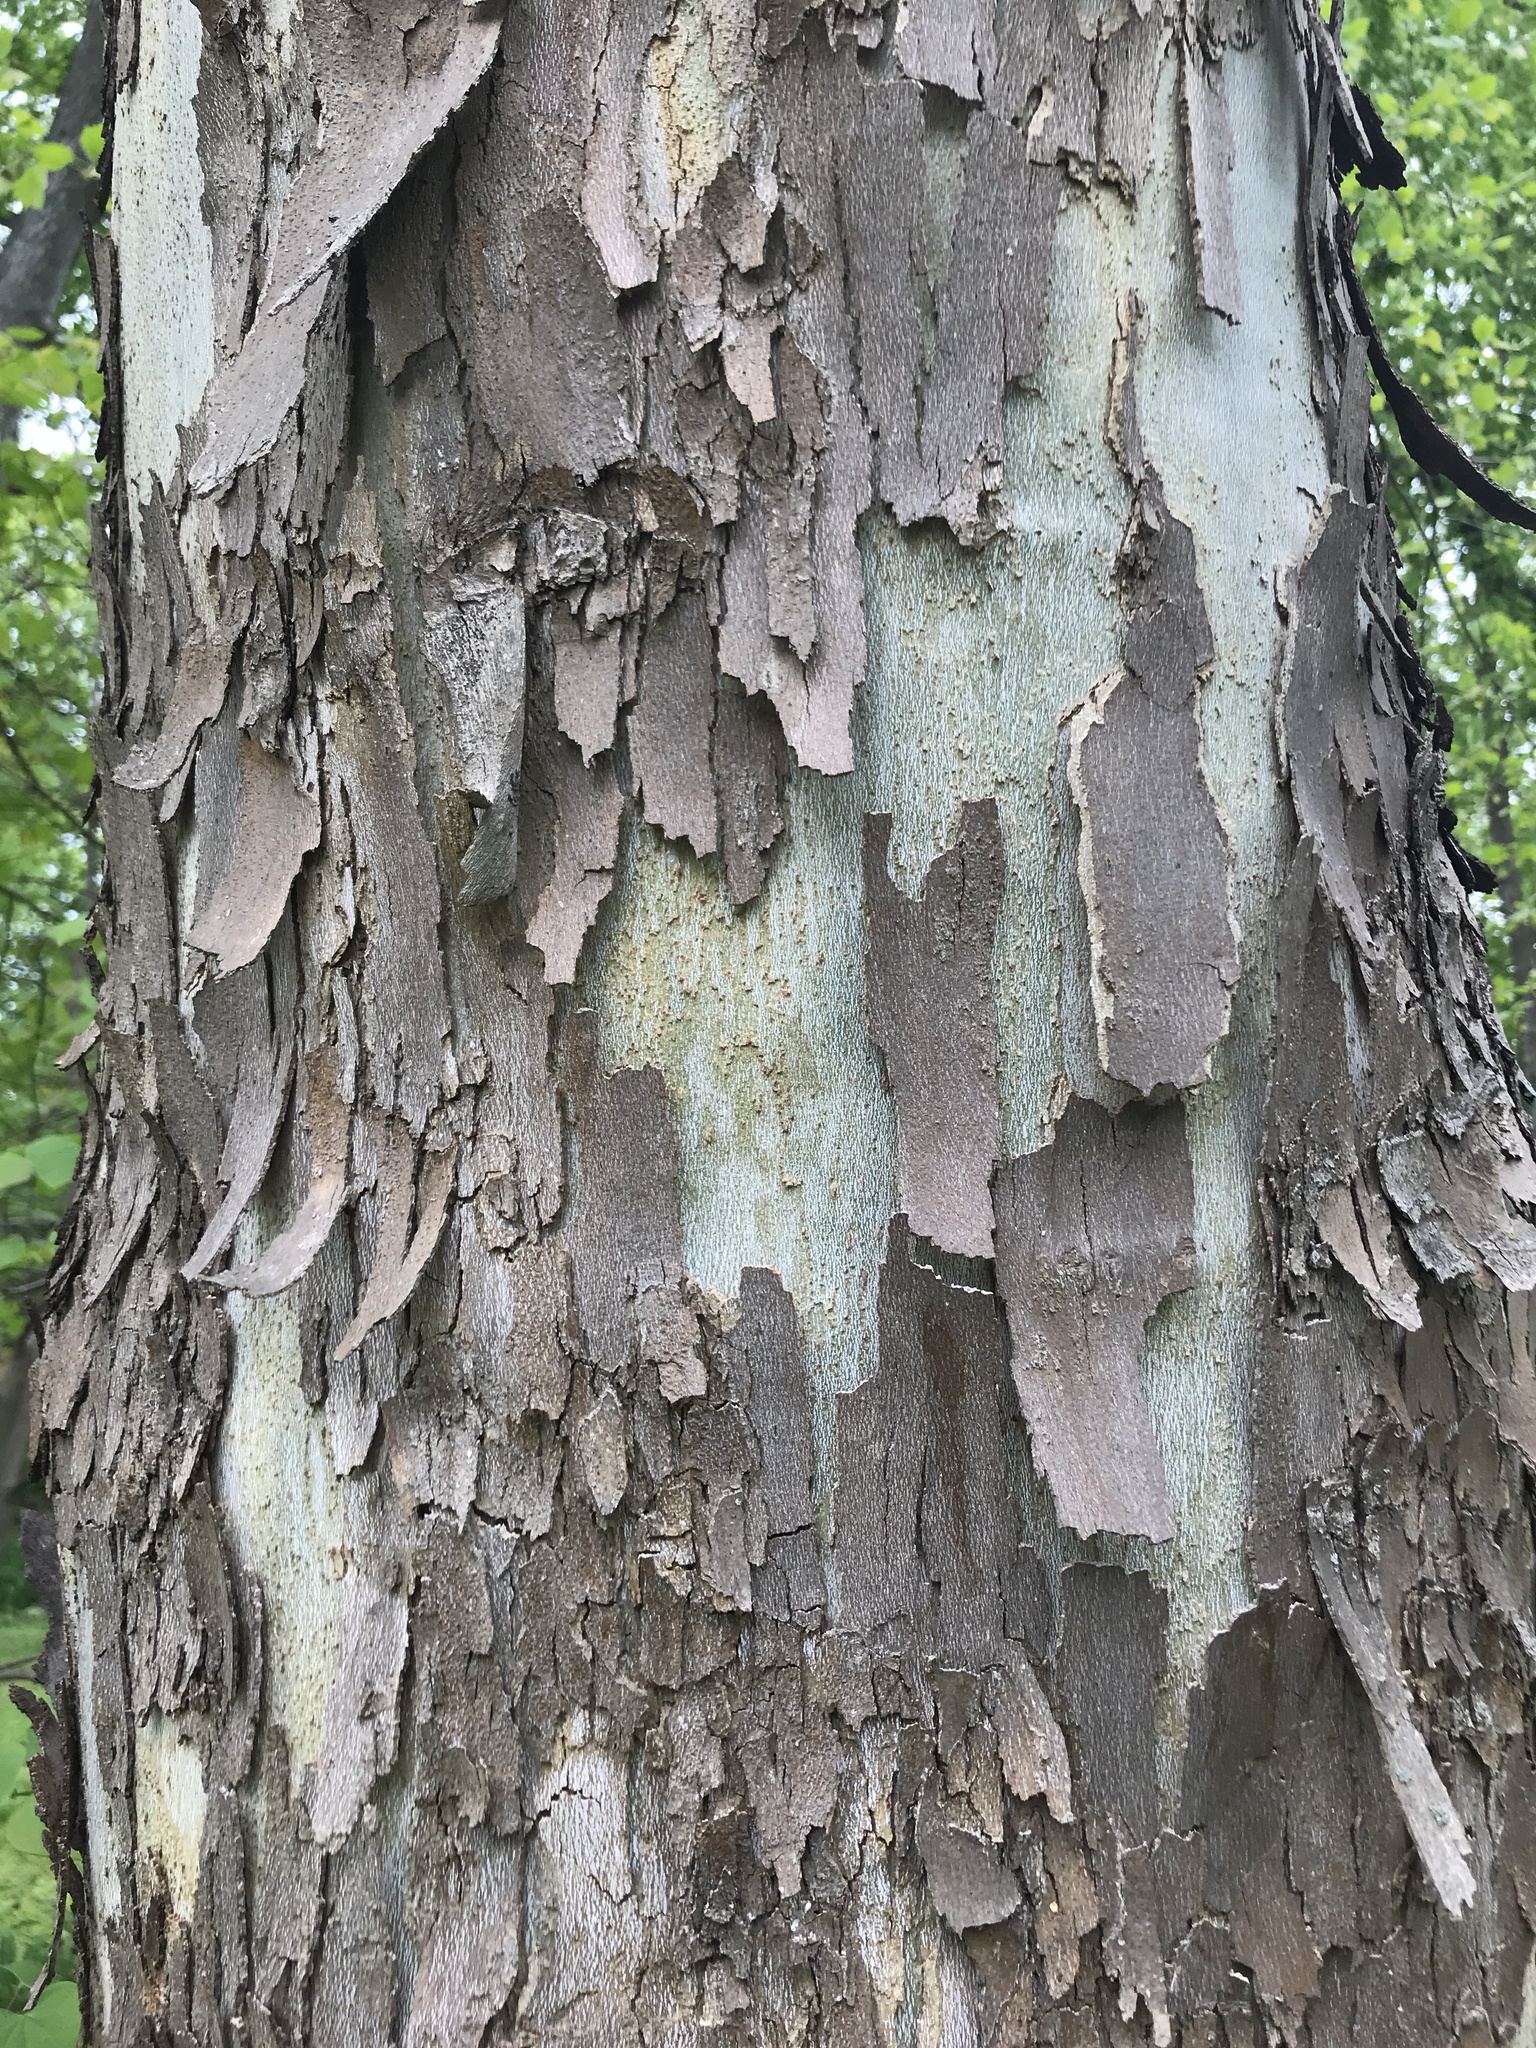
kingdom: Plantae
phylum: Tracheophyta
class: Magnoliopsida
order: Proteales
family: Platanaceae
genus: Platanus
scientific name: Platanus occidentalis
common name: American sycamore
